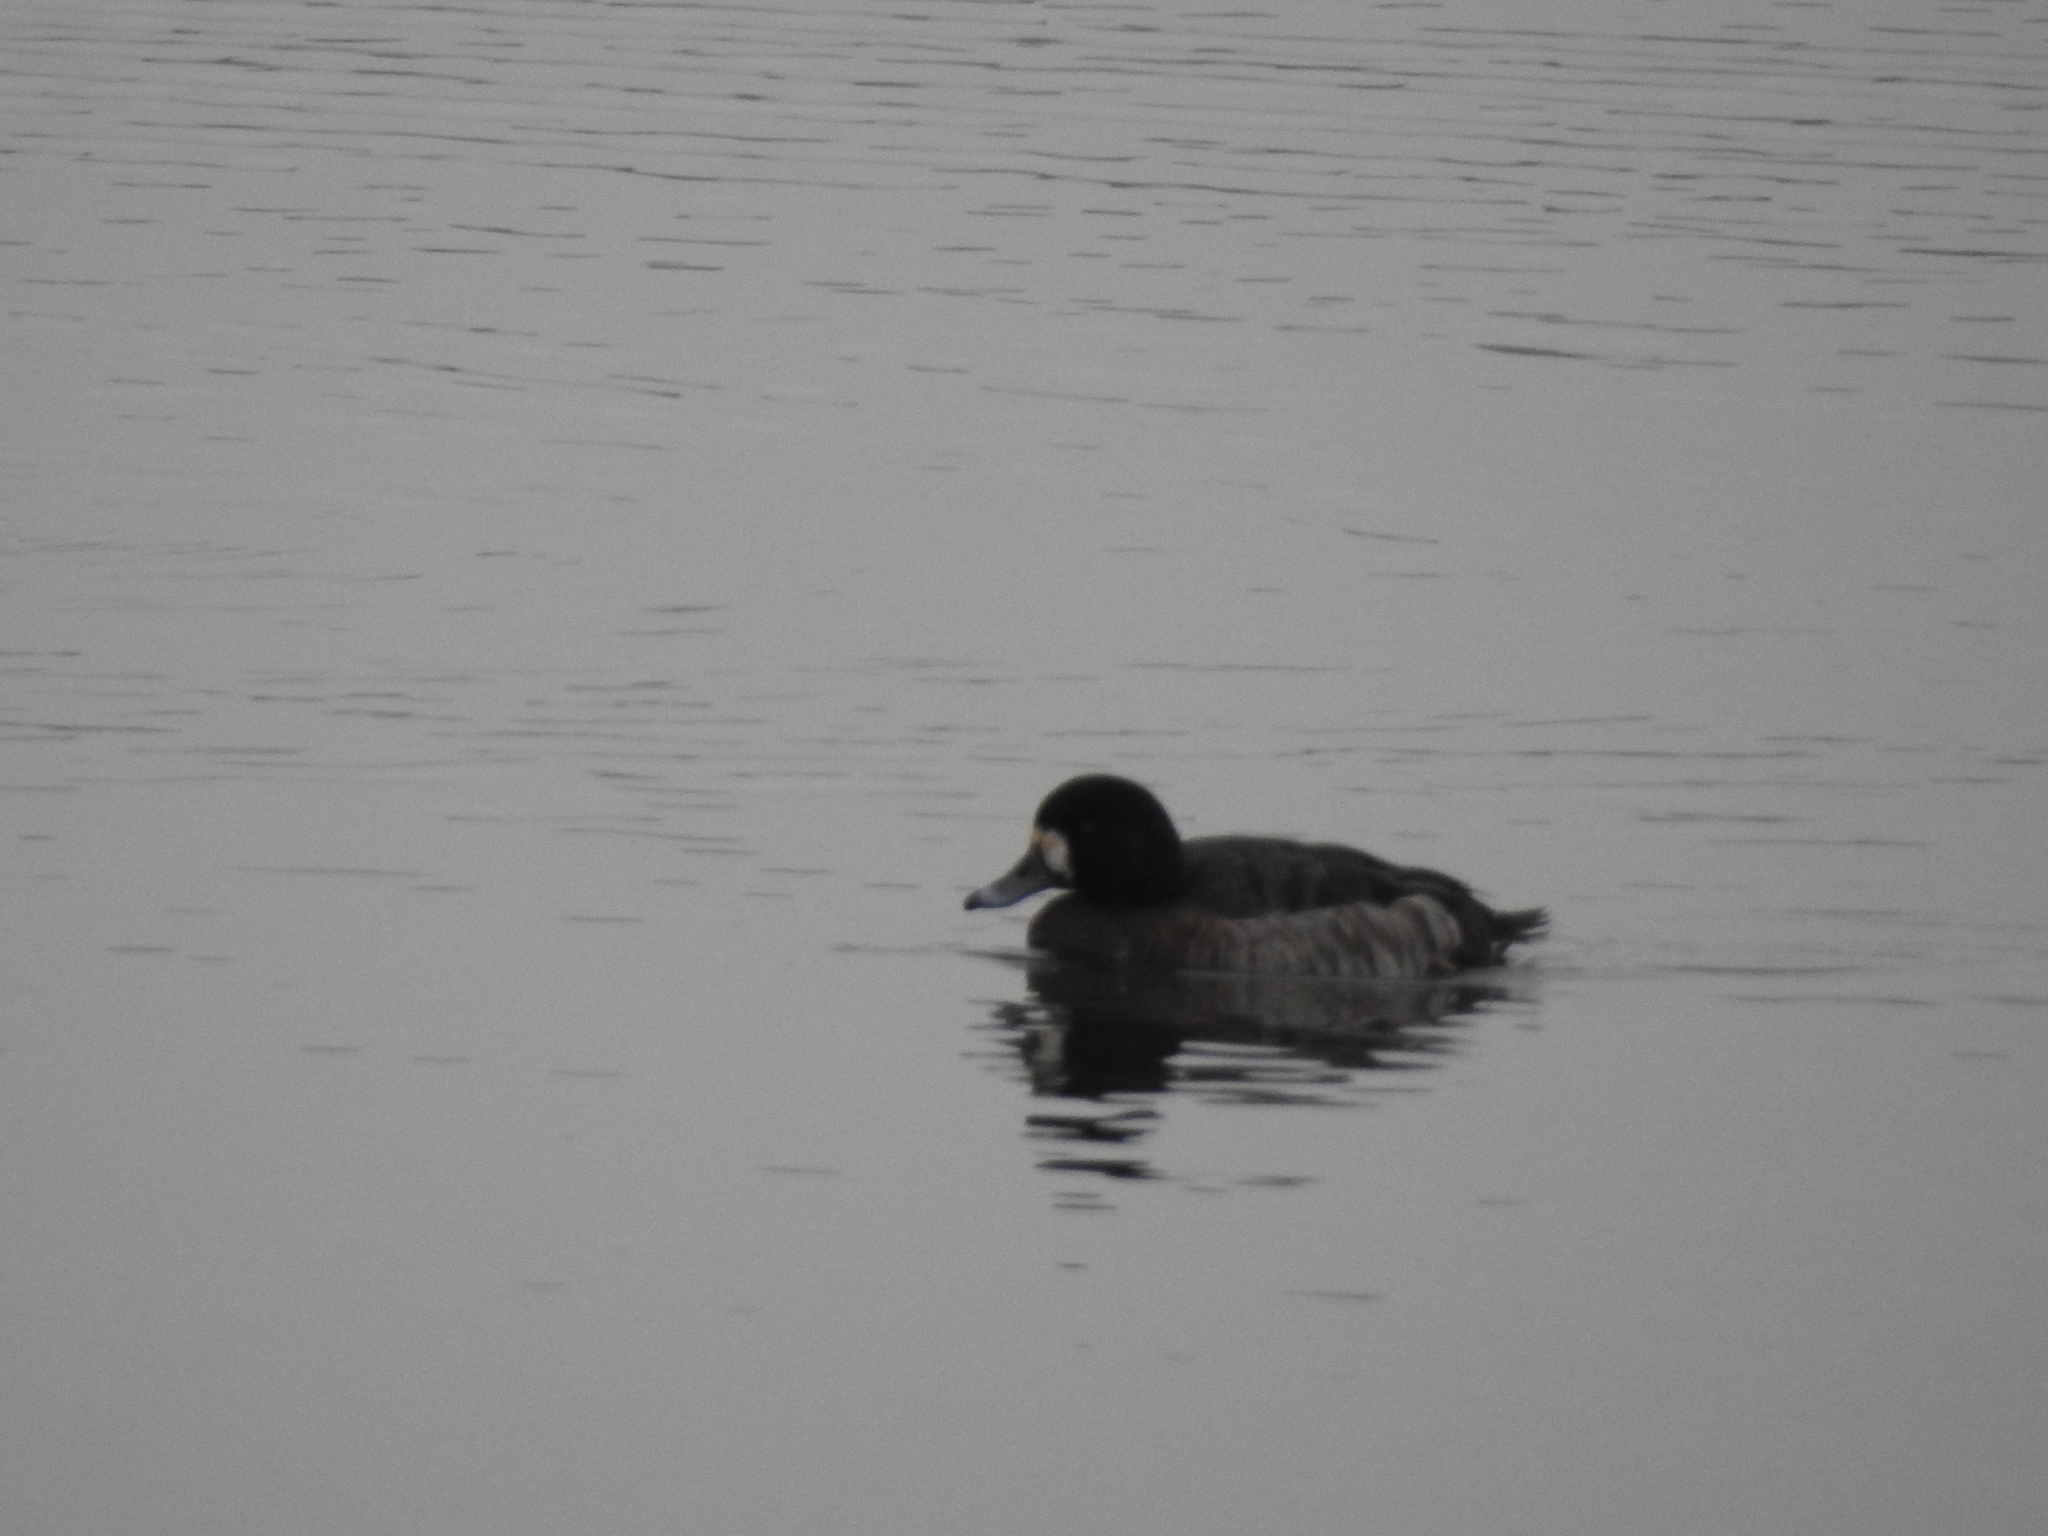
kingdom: Animalia
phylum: Chordata
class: Aves
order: Anseriformes
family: Anatidae
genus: Aythya
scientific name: Aythya marila
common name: Greater scaup
